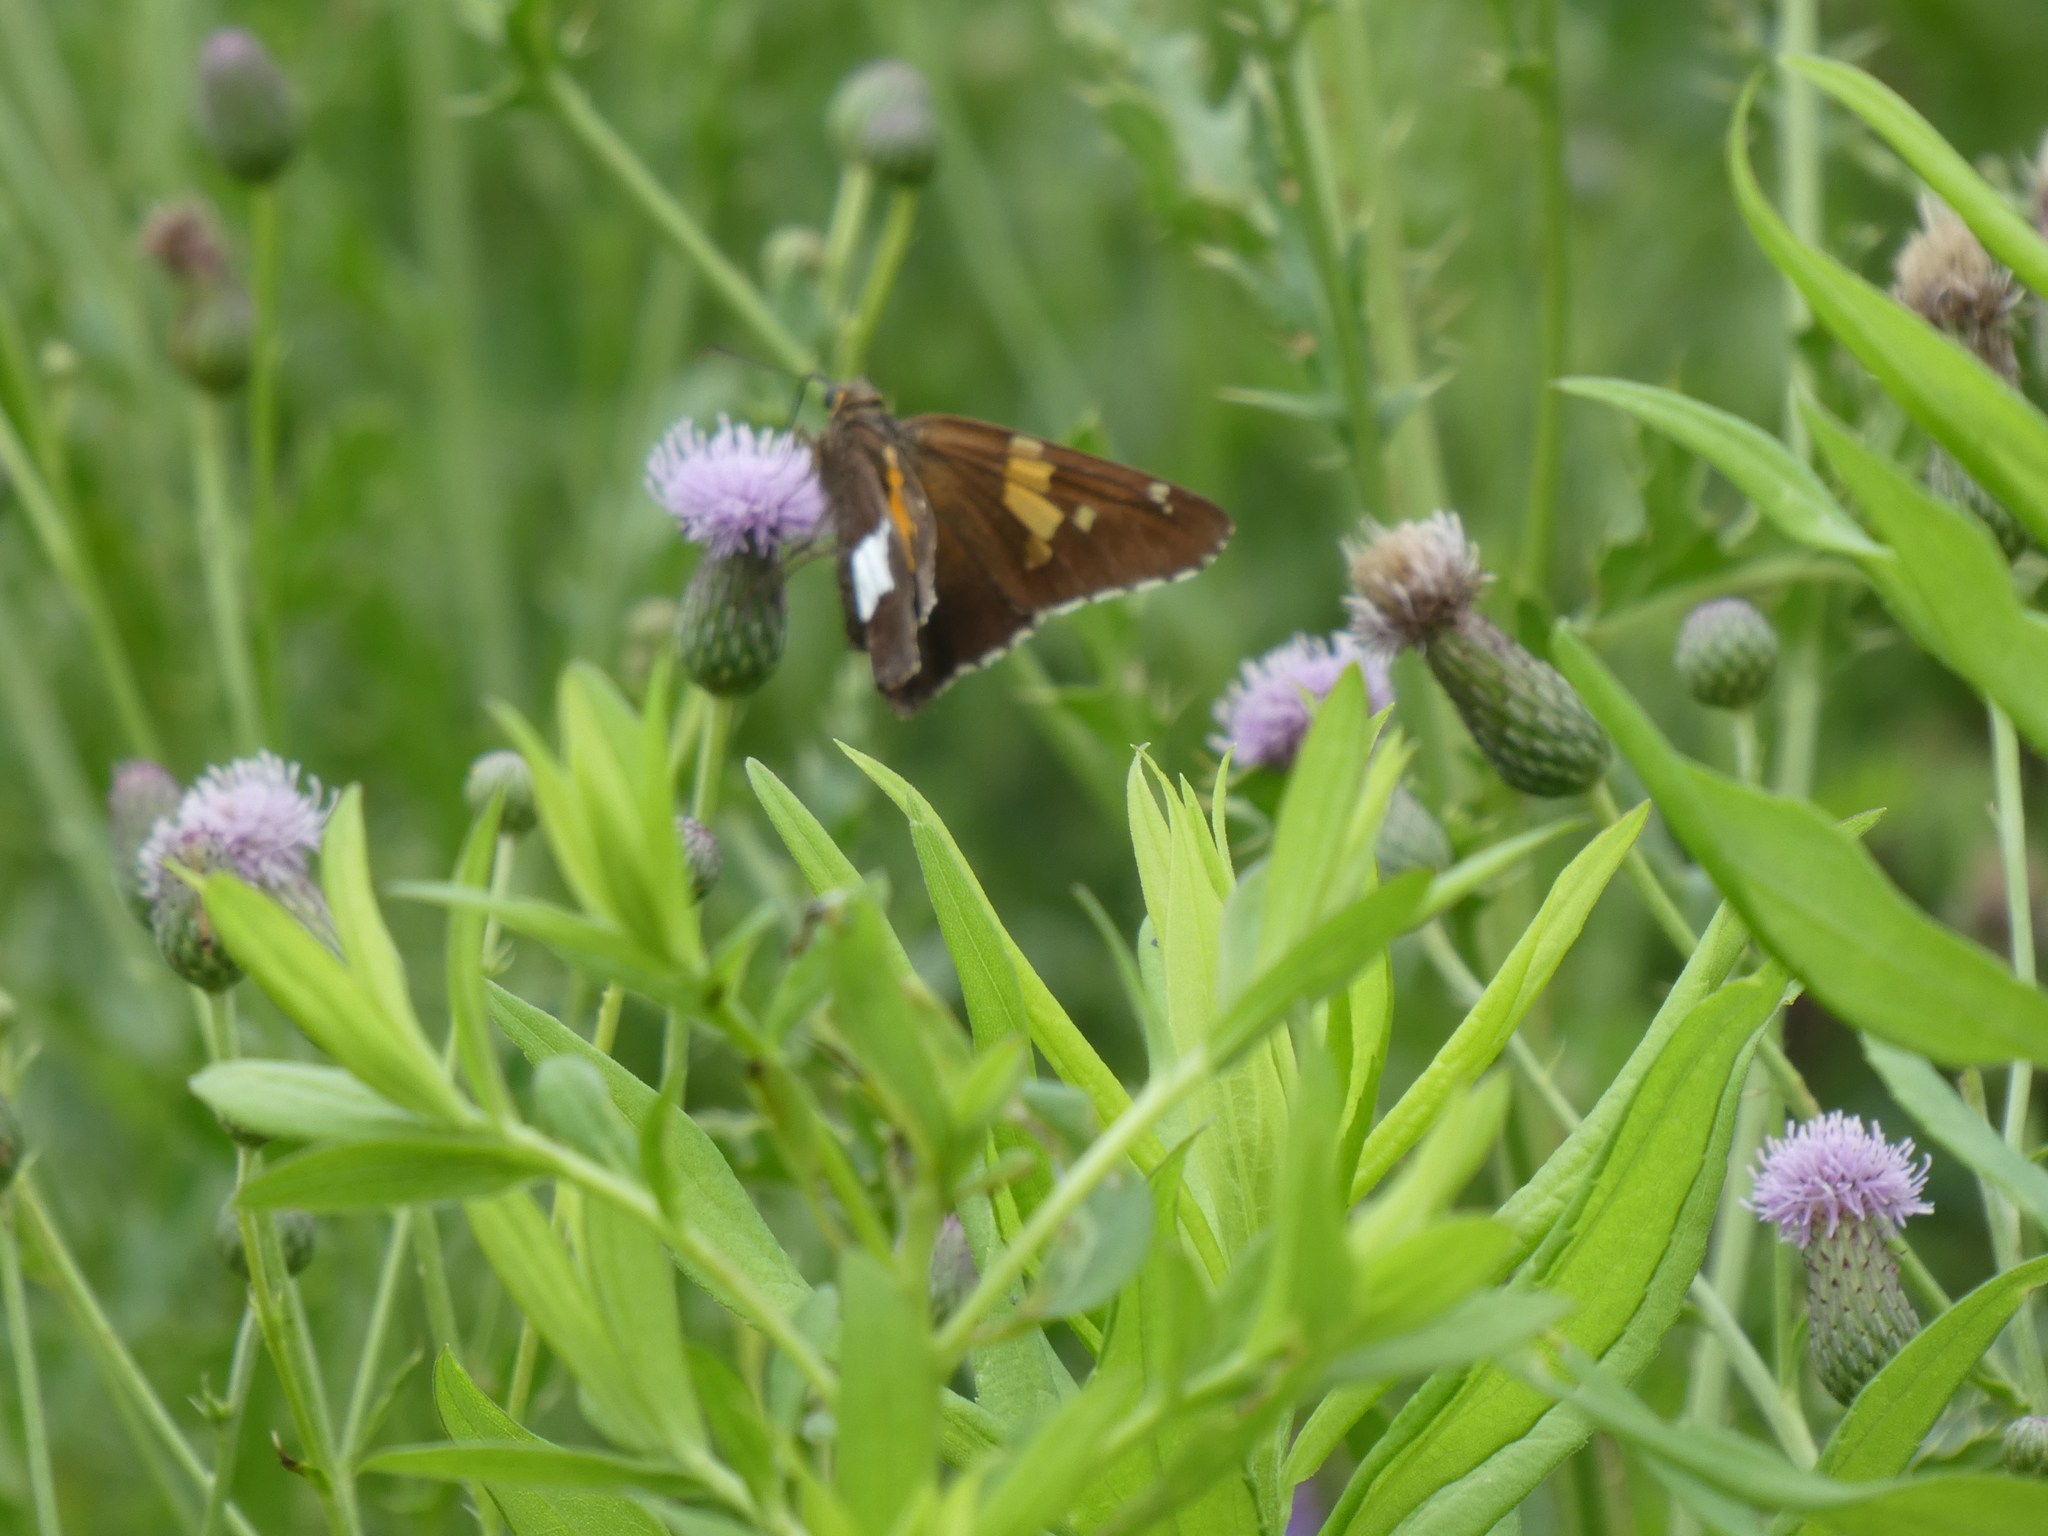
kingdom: Animalia
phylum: Arthropoda
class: Insecta
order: Lepidoptera
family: Hesperiidae
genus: Epargyreus
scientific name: Epargyreus clarus
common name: Silver-spotted skipper
